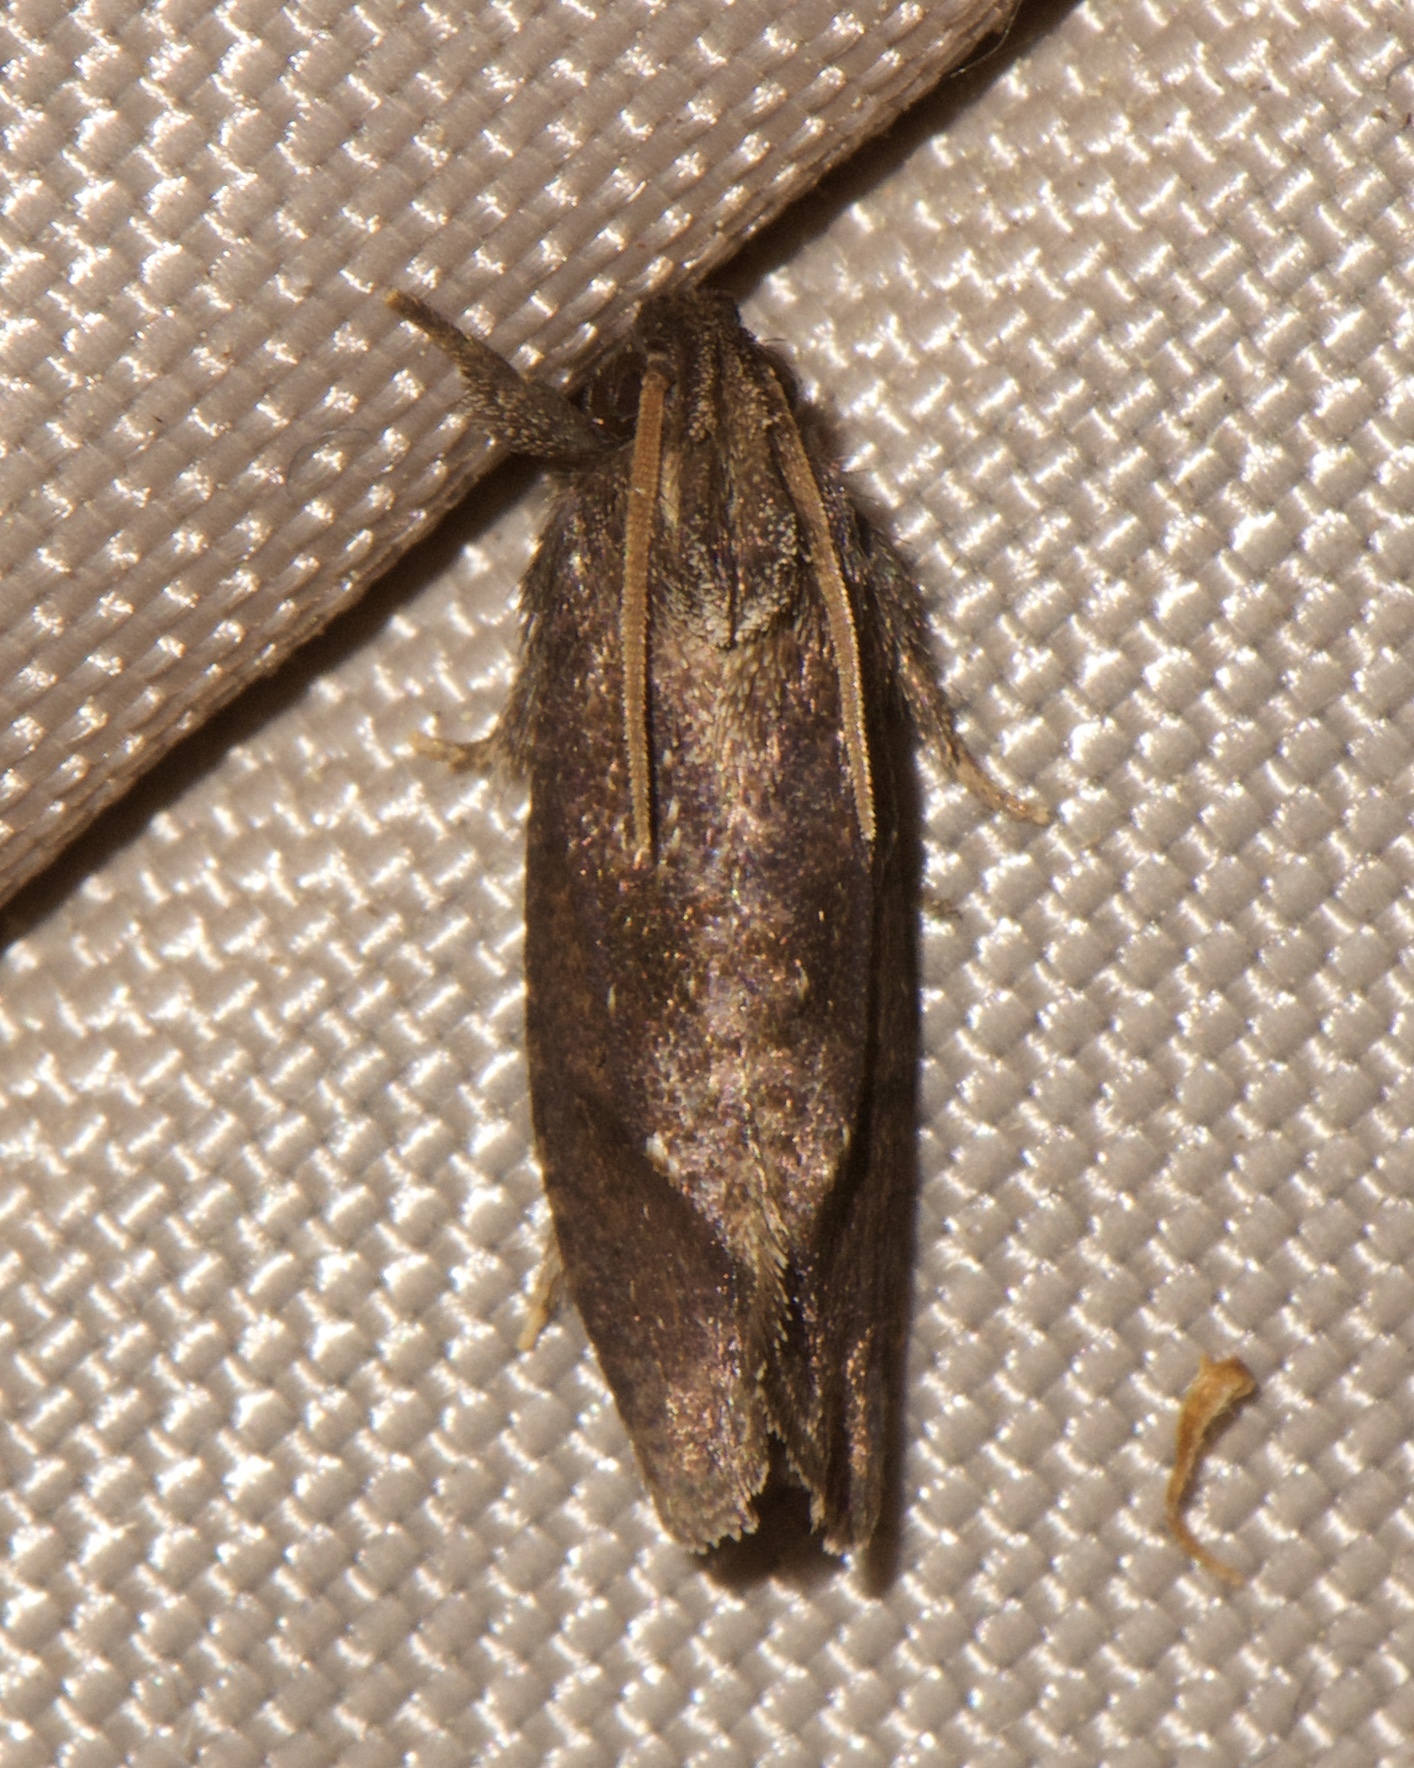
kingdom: Animalia
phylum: Arthropoda
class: Insecta
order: Lepidoptera
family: Tineidae
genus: Acrolophus
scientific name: Acrolophus texanella
